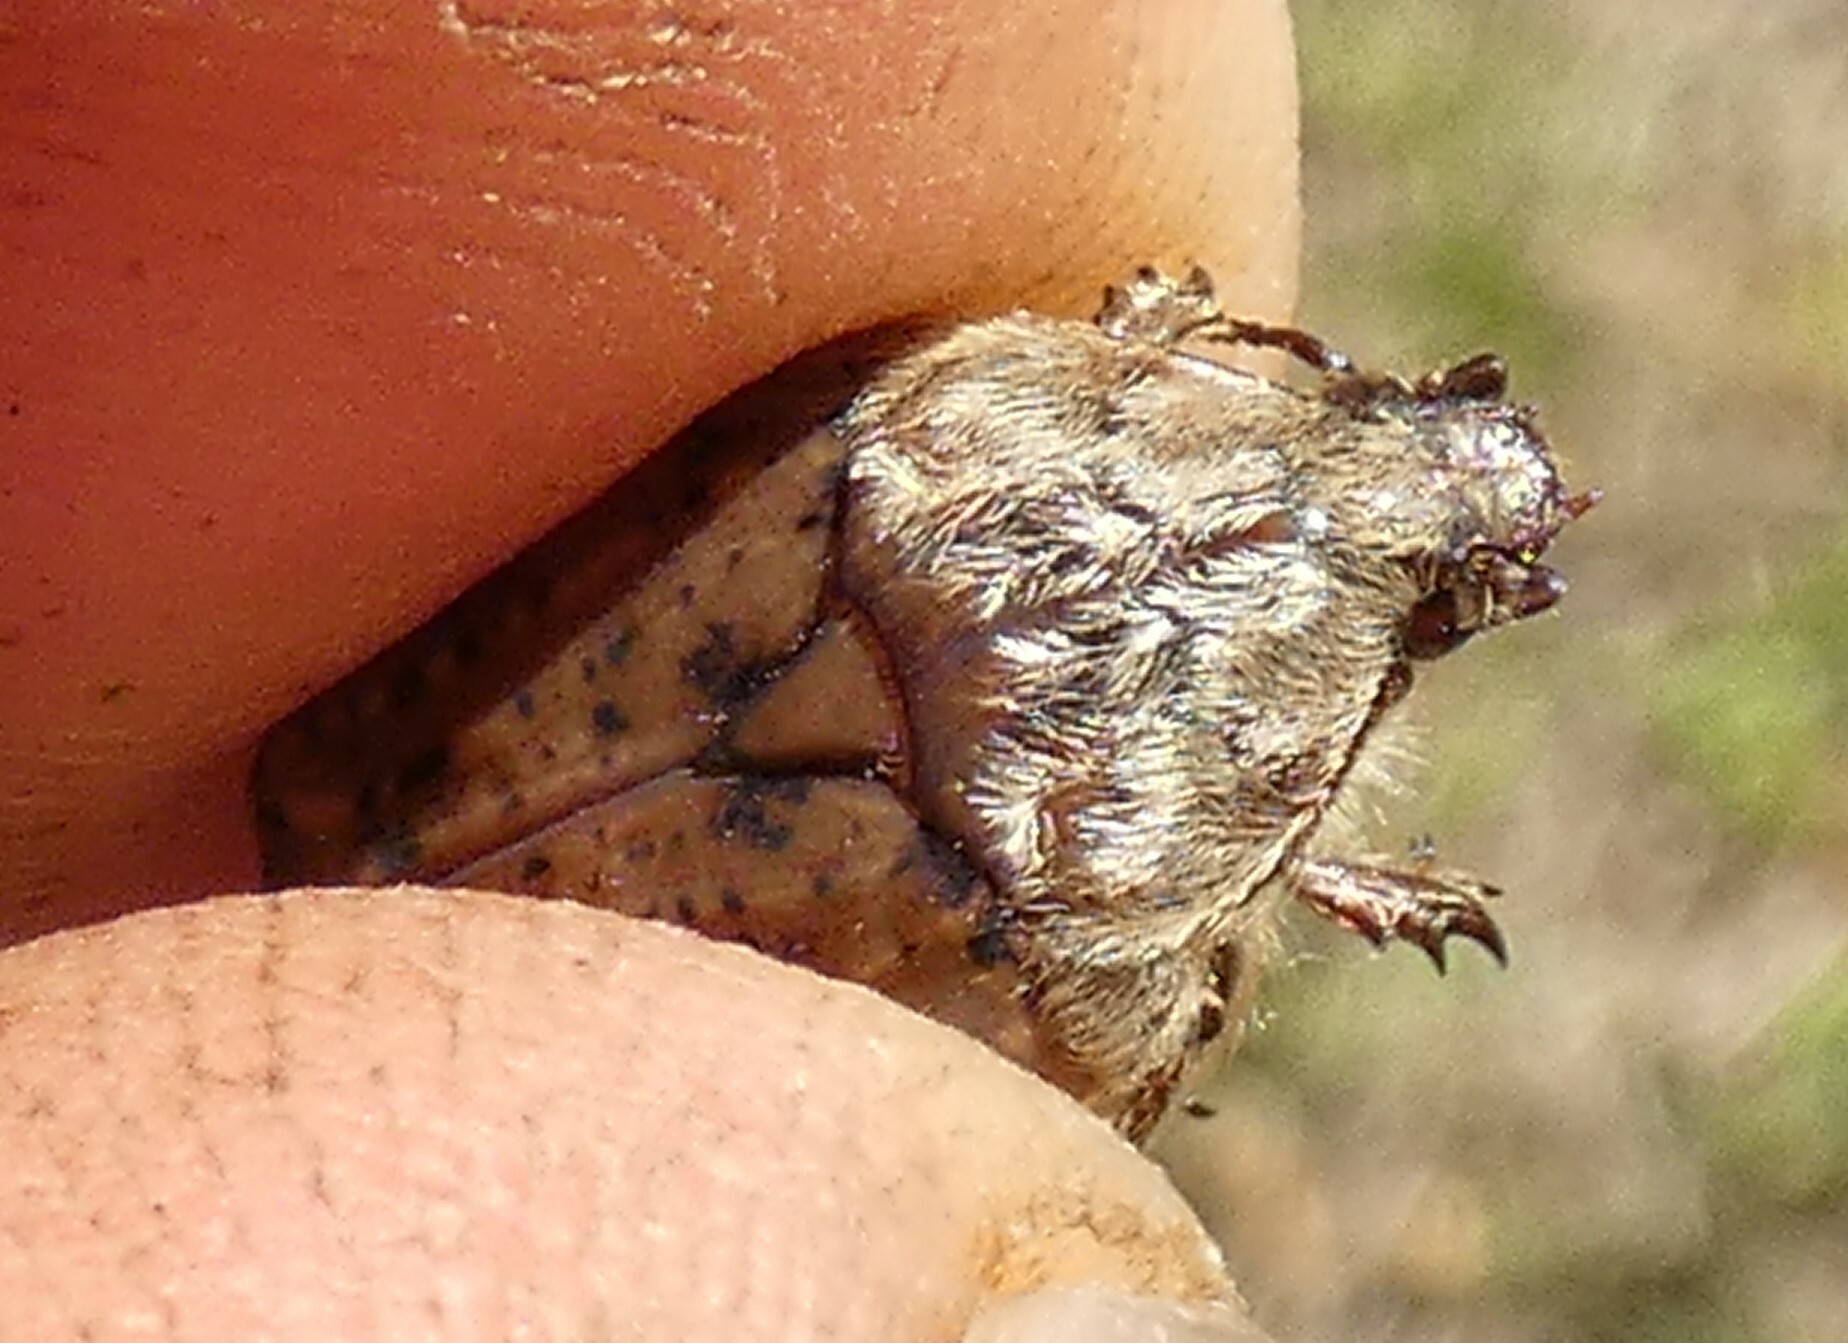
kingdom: Animalia
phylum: Arthropoda
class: Insecta
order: Coleoptera
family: Scarabaeidae
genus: Euphoria
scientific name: Euphoria inda
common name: Bumble flower beetle
